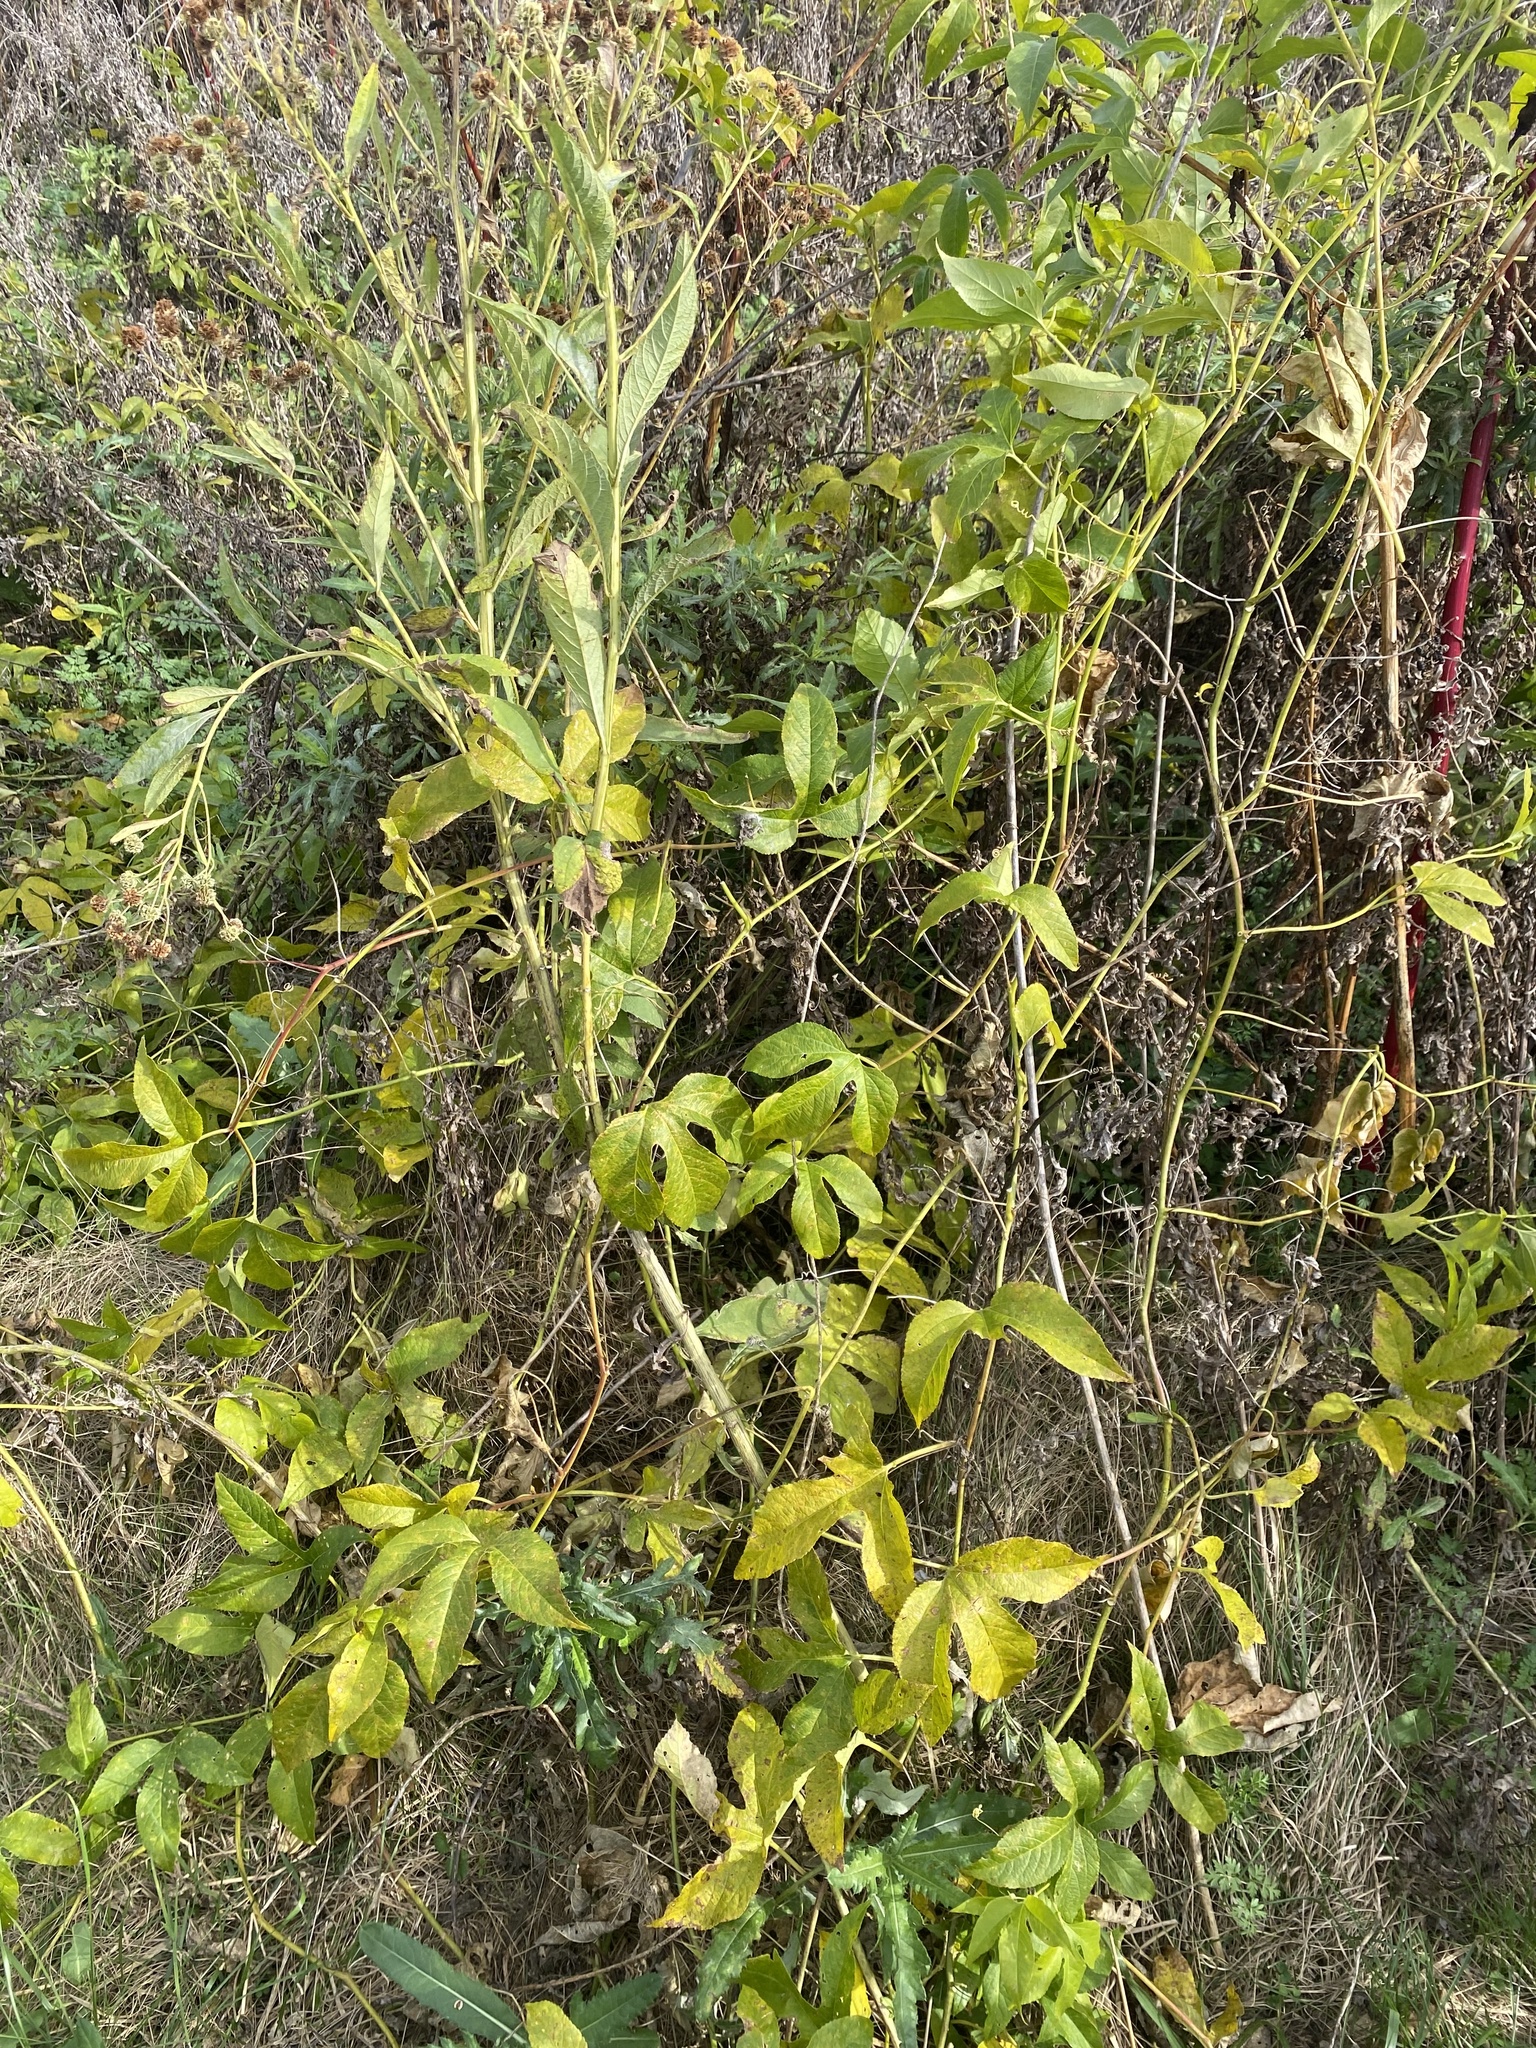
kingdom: Plantae
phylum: Tracheophyta
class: Magnoliopsida
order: Malpighiales
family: Passifloraceae
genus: Passiflora
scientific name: Passiflora incarnata
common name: Apricot-vine
